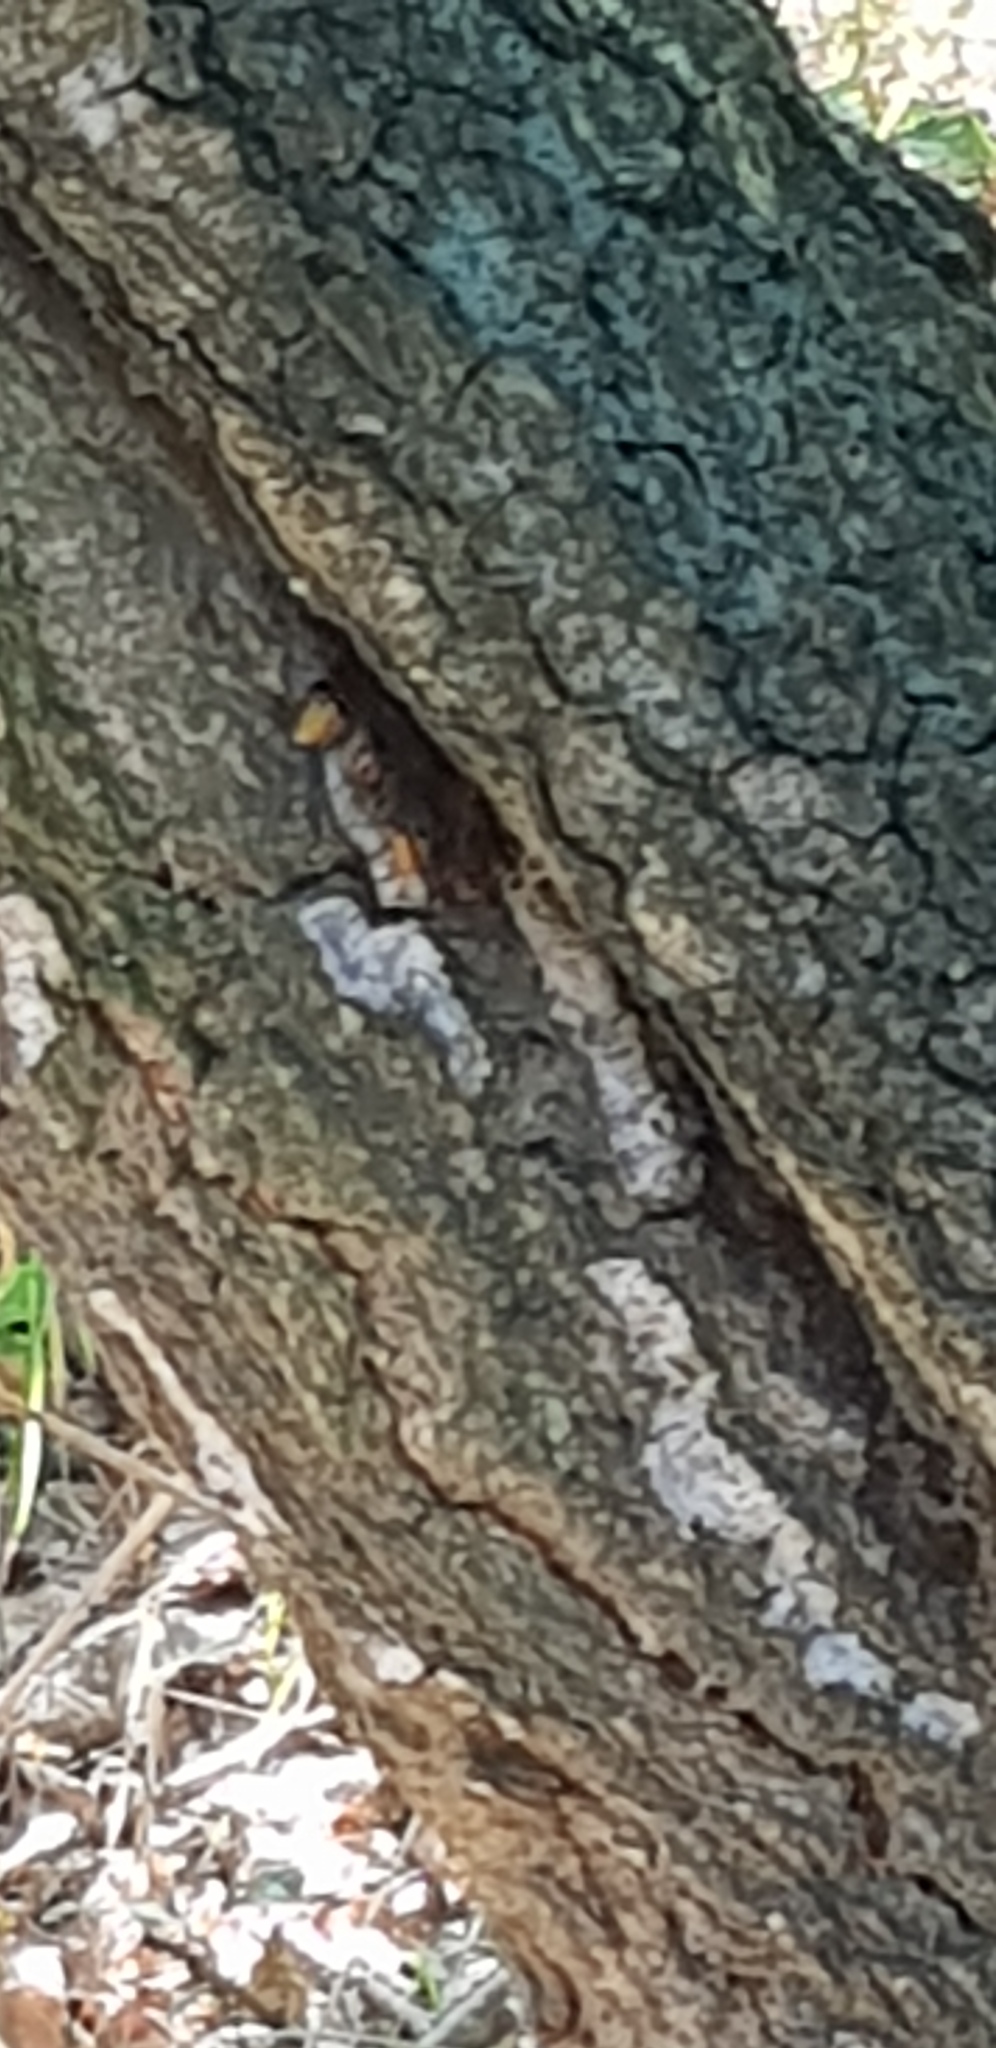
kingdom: Animalia
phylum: Arthropoda
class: Insecta
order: Hymenoptera
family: Vespidae
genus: Vespa
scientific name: Vespa crabro
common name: Hornet
